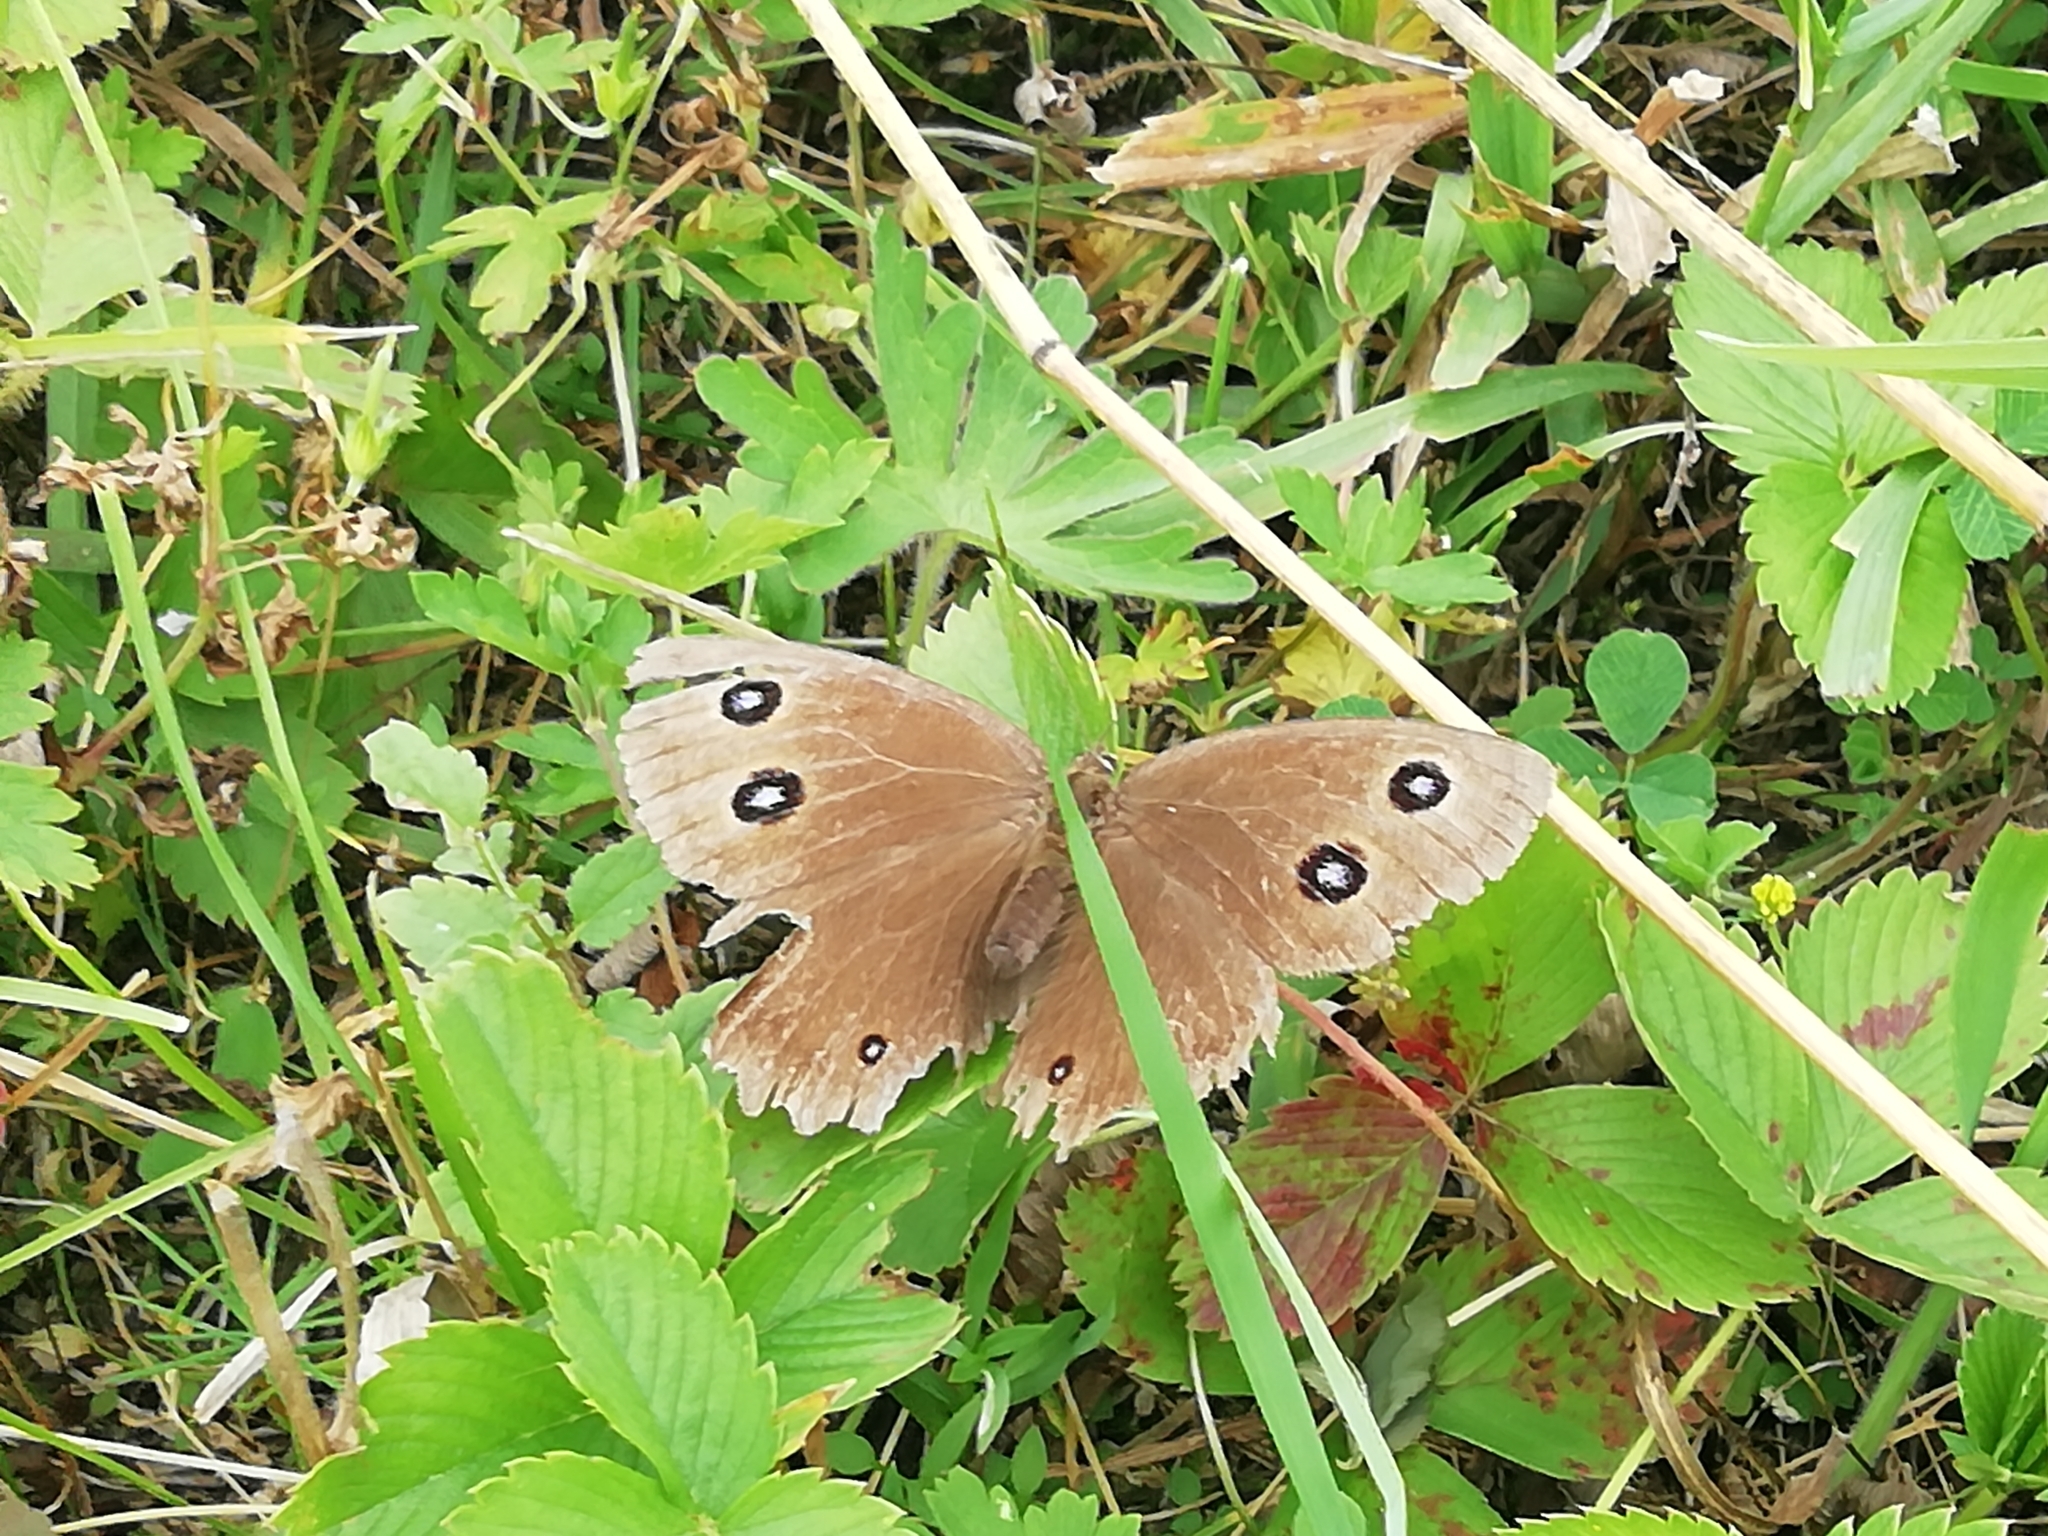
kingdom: Animalia
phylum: Arthropoda
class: Insecta
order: Lepidoptera
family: Nymphalidae
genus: Minois
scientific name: Minois dryas
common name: Dryad
